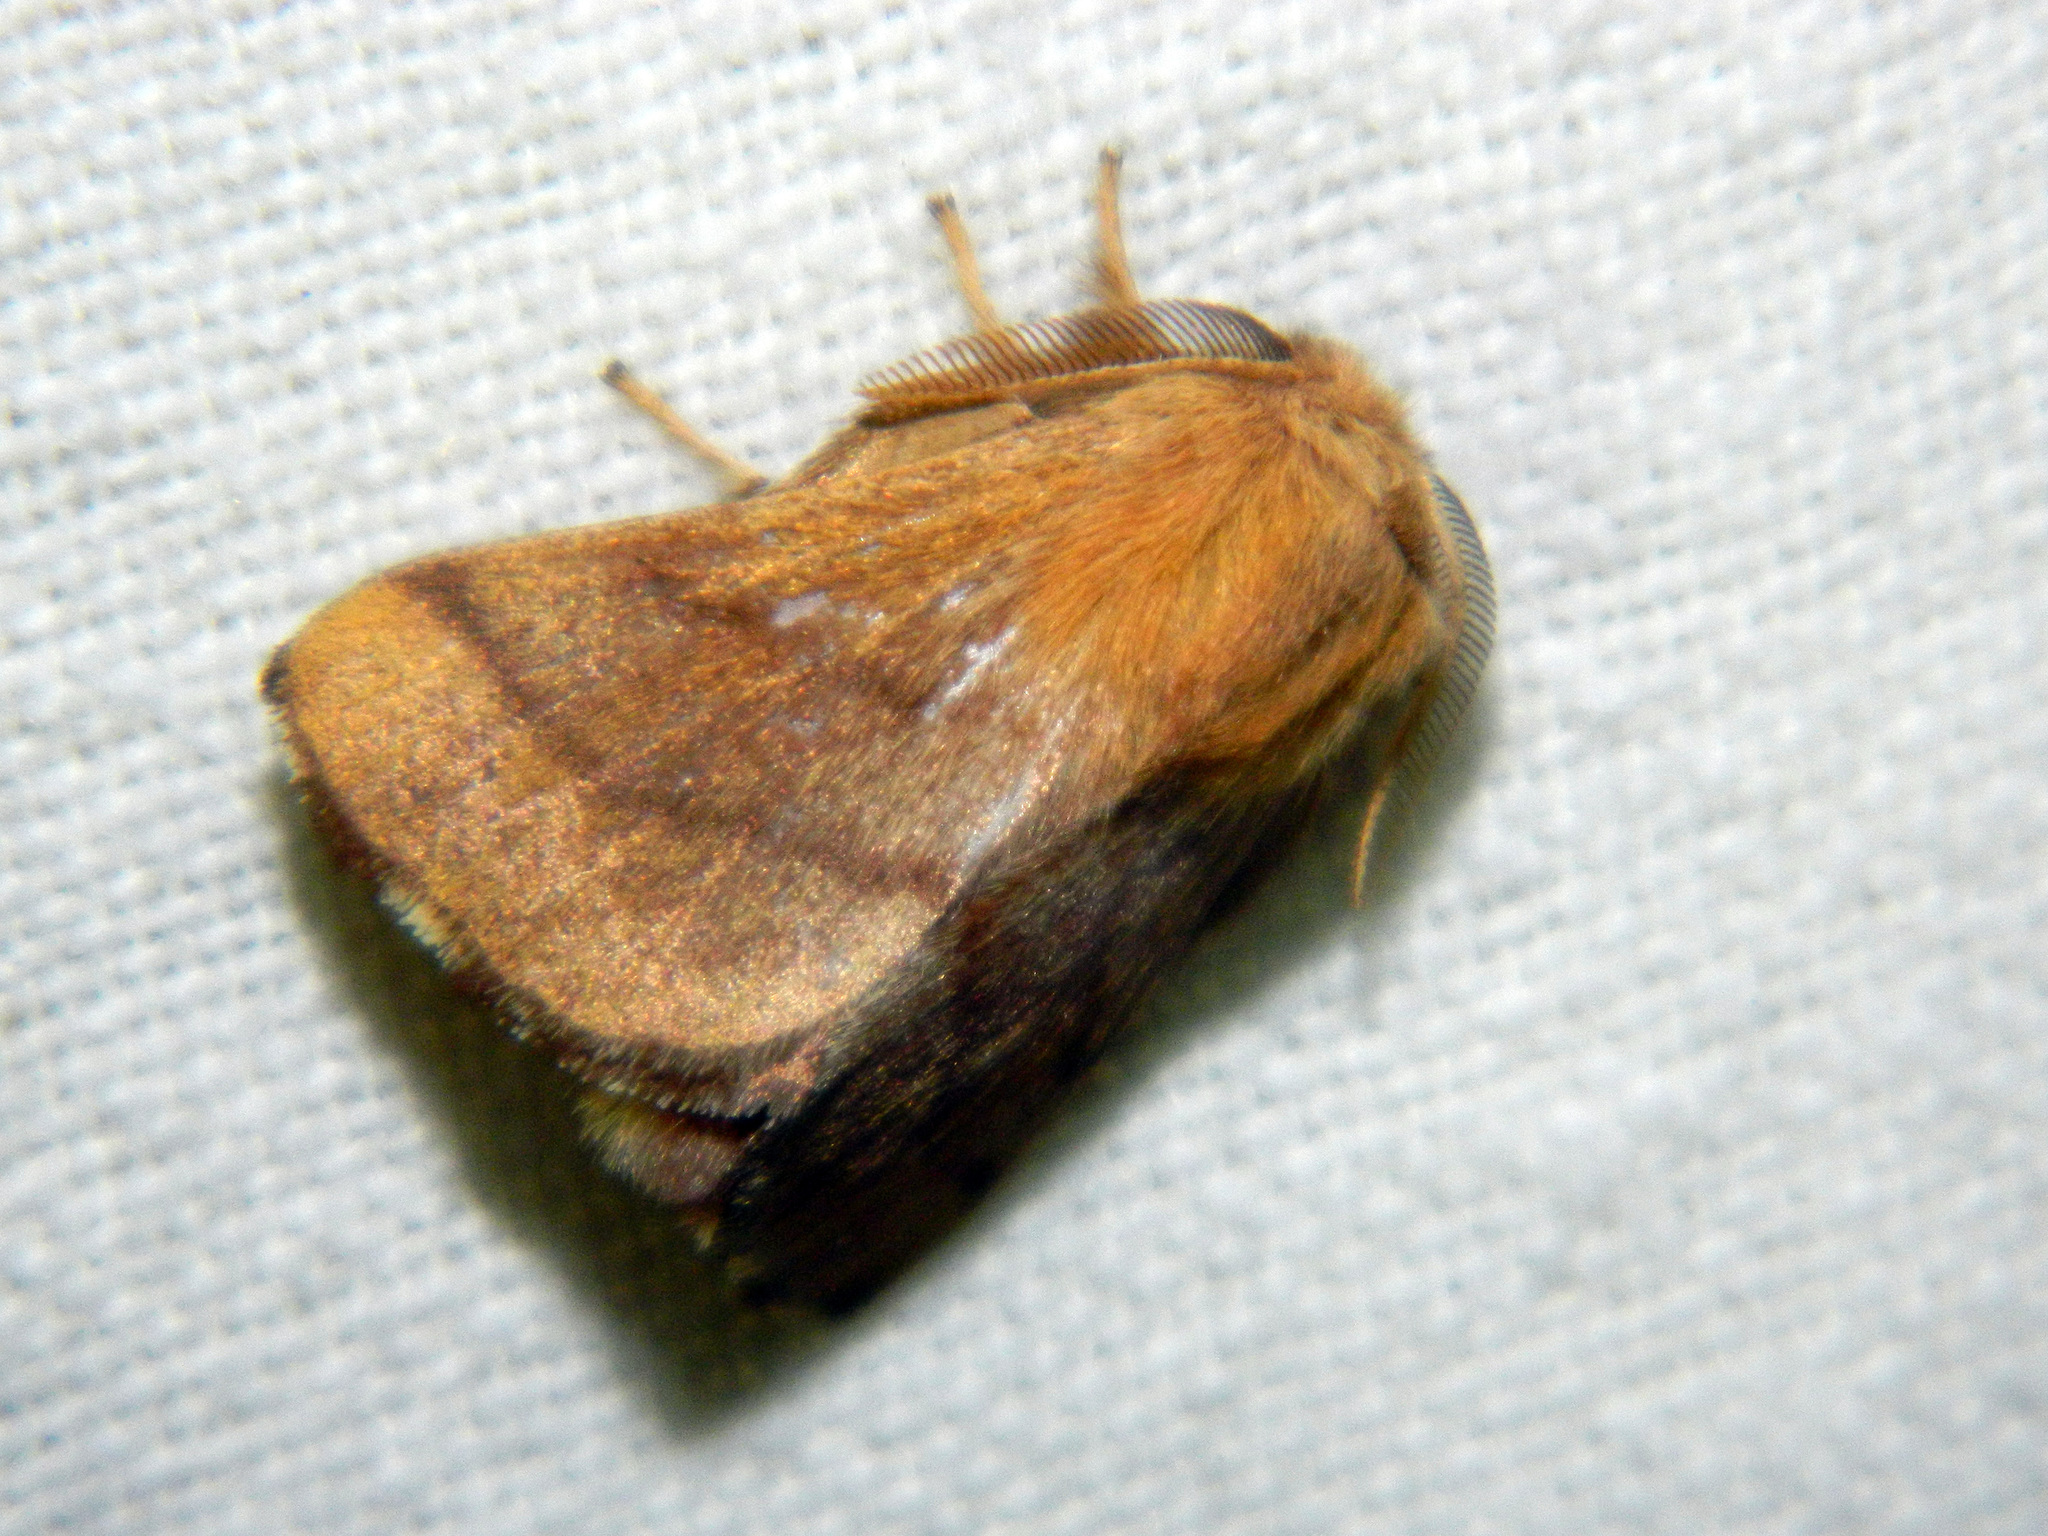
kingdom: Animalia
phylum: Arthropoda
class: Insecta
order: Lepidoptera
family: Lasiocampidae
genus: Malacosoma
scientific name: Malacosoma disstria
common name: Forest tent caterpillar
